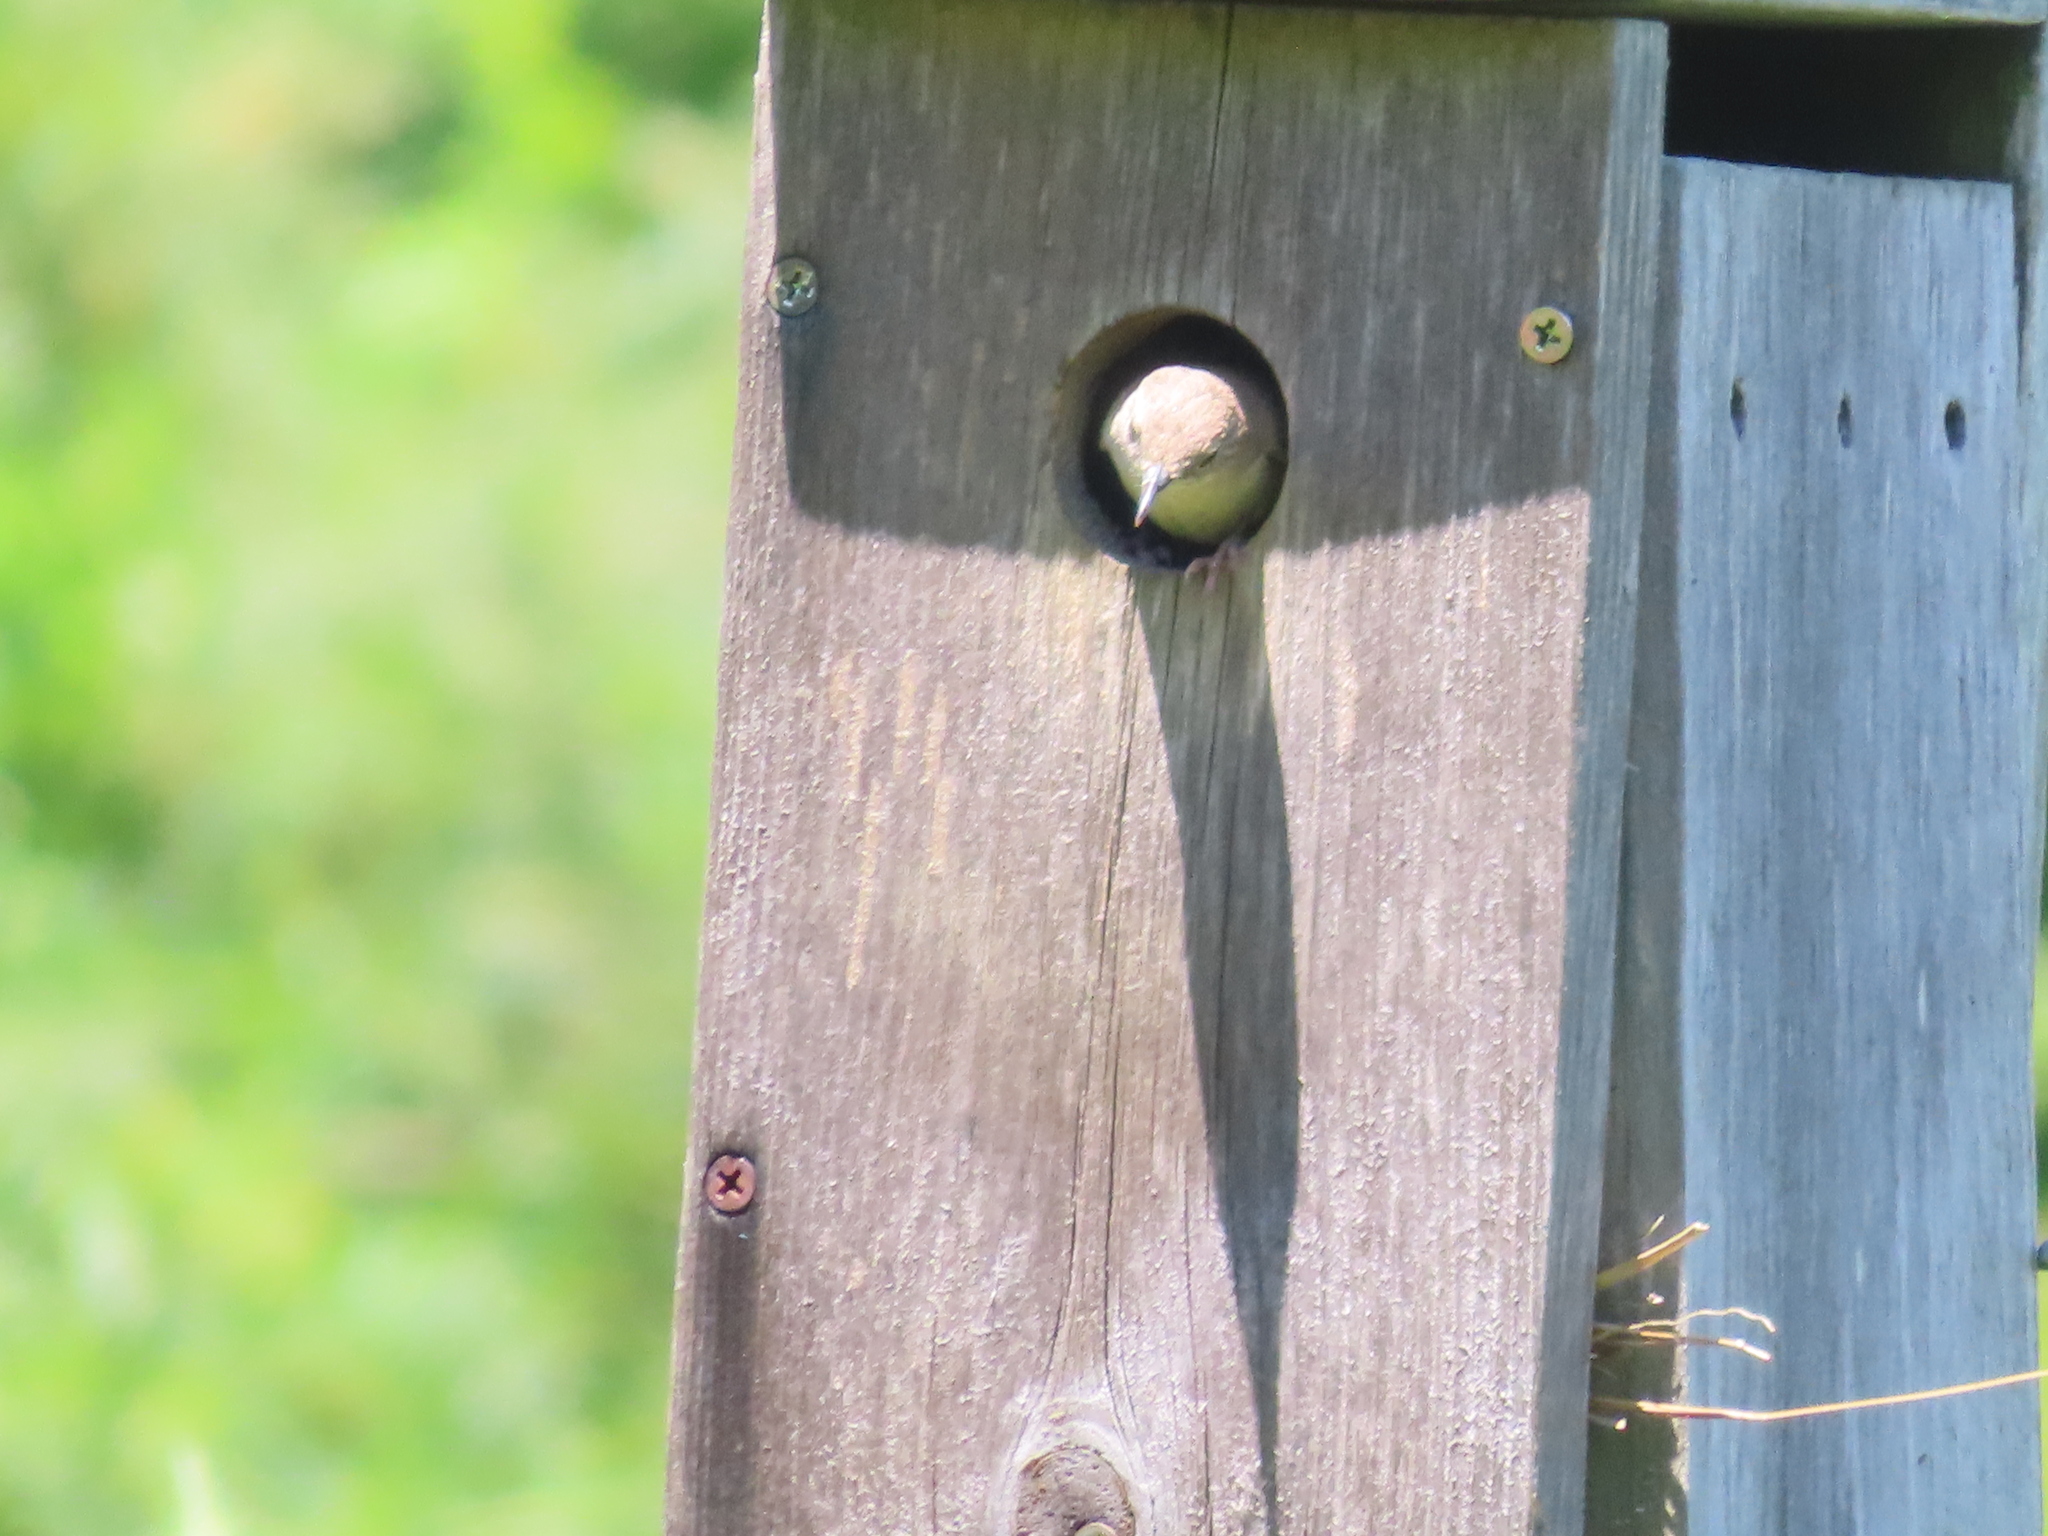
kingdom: Animalia
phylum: Chordata
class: Aves
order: Passeriformes
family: Troglodytidae
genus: Troglodytes
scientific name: Troglodytes aedon
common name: House wren
